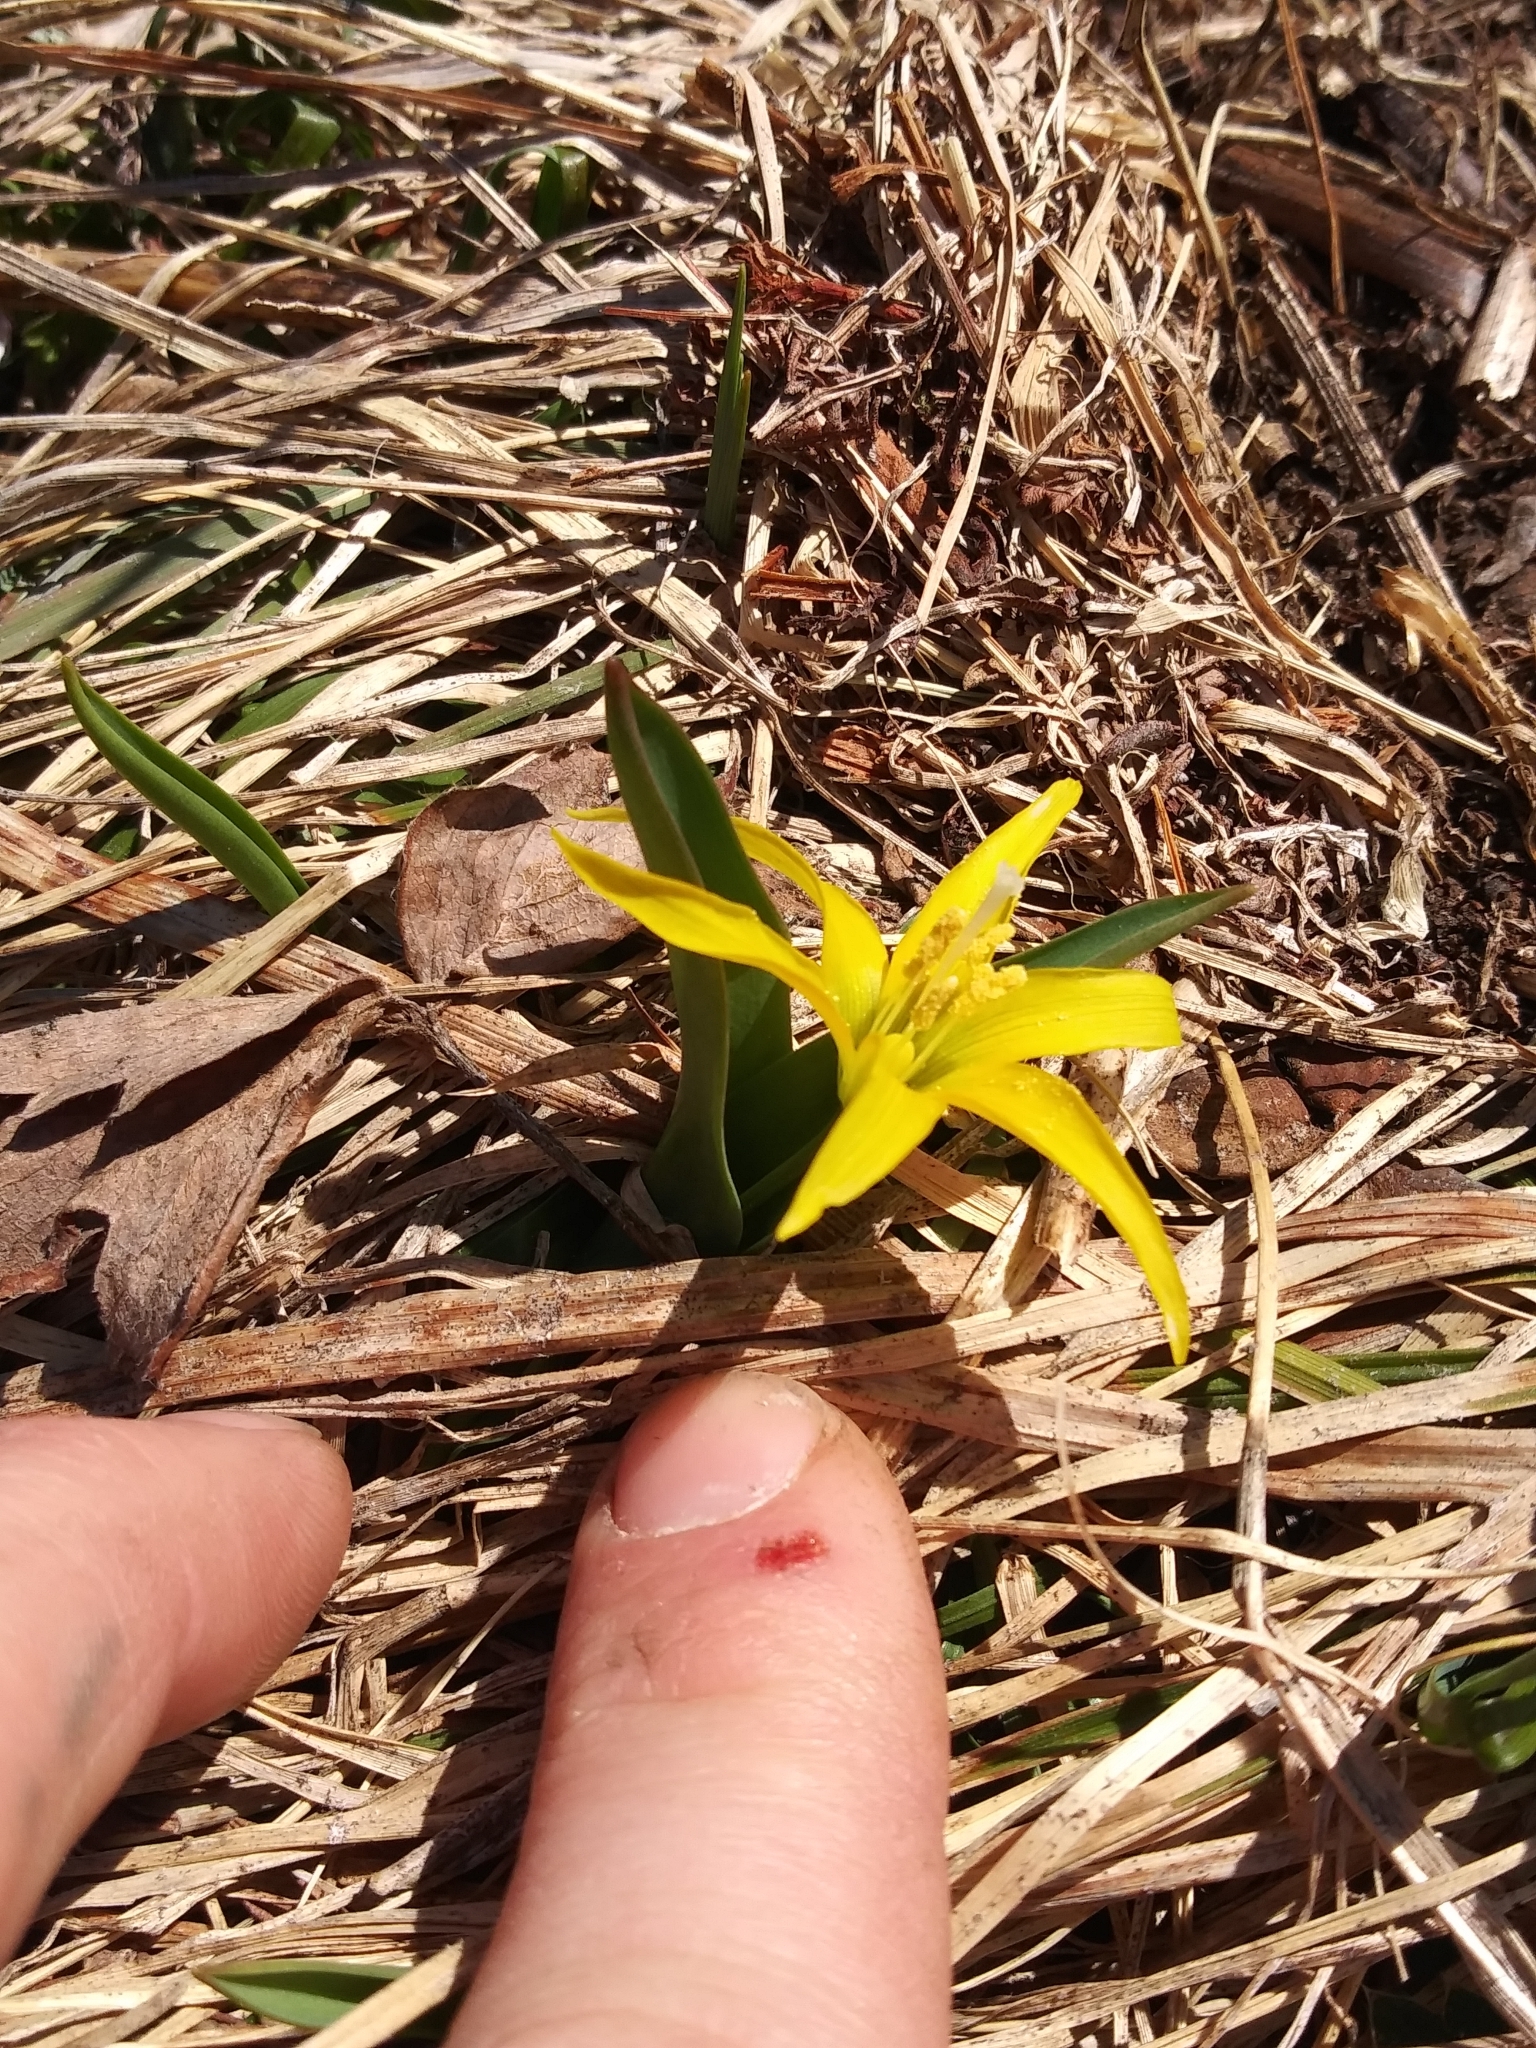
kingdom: Plantae
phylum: Tracheophyta
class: Liliopsida
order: Liliales
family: Liliaceae
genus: Erythronium
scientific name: Erythronium grandiflorum
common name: Avalanche-lily
